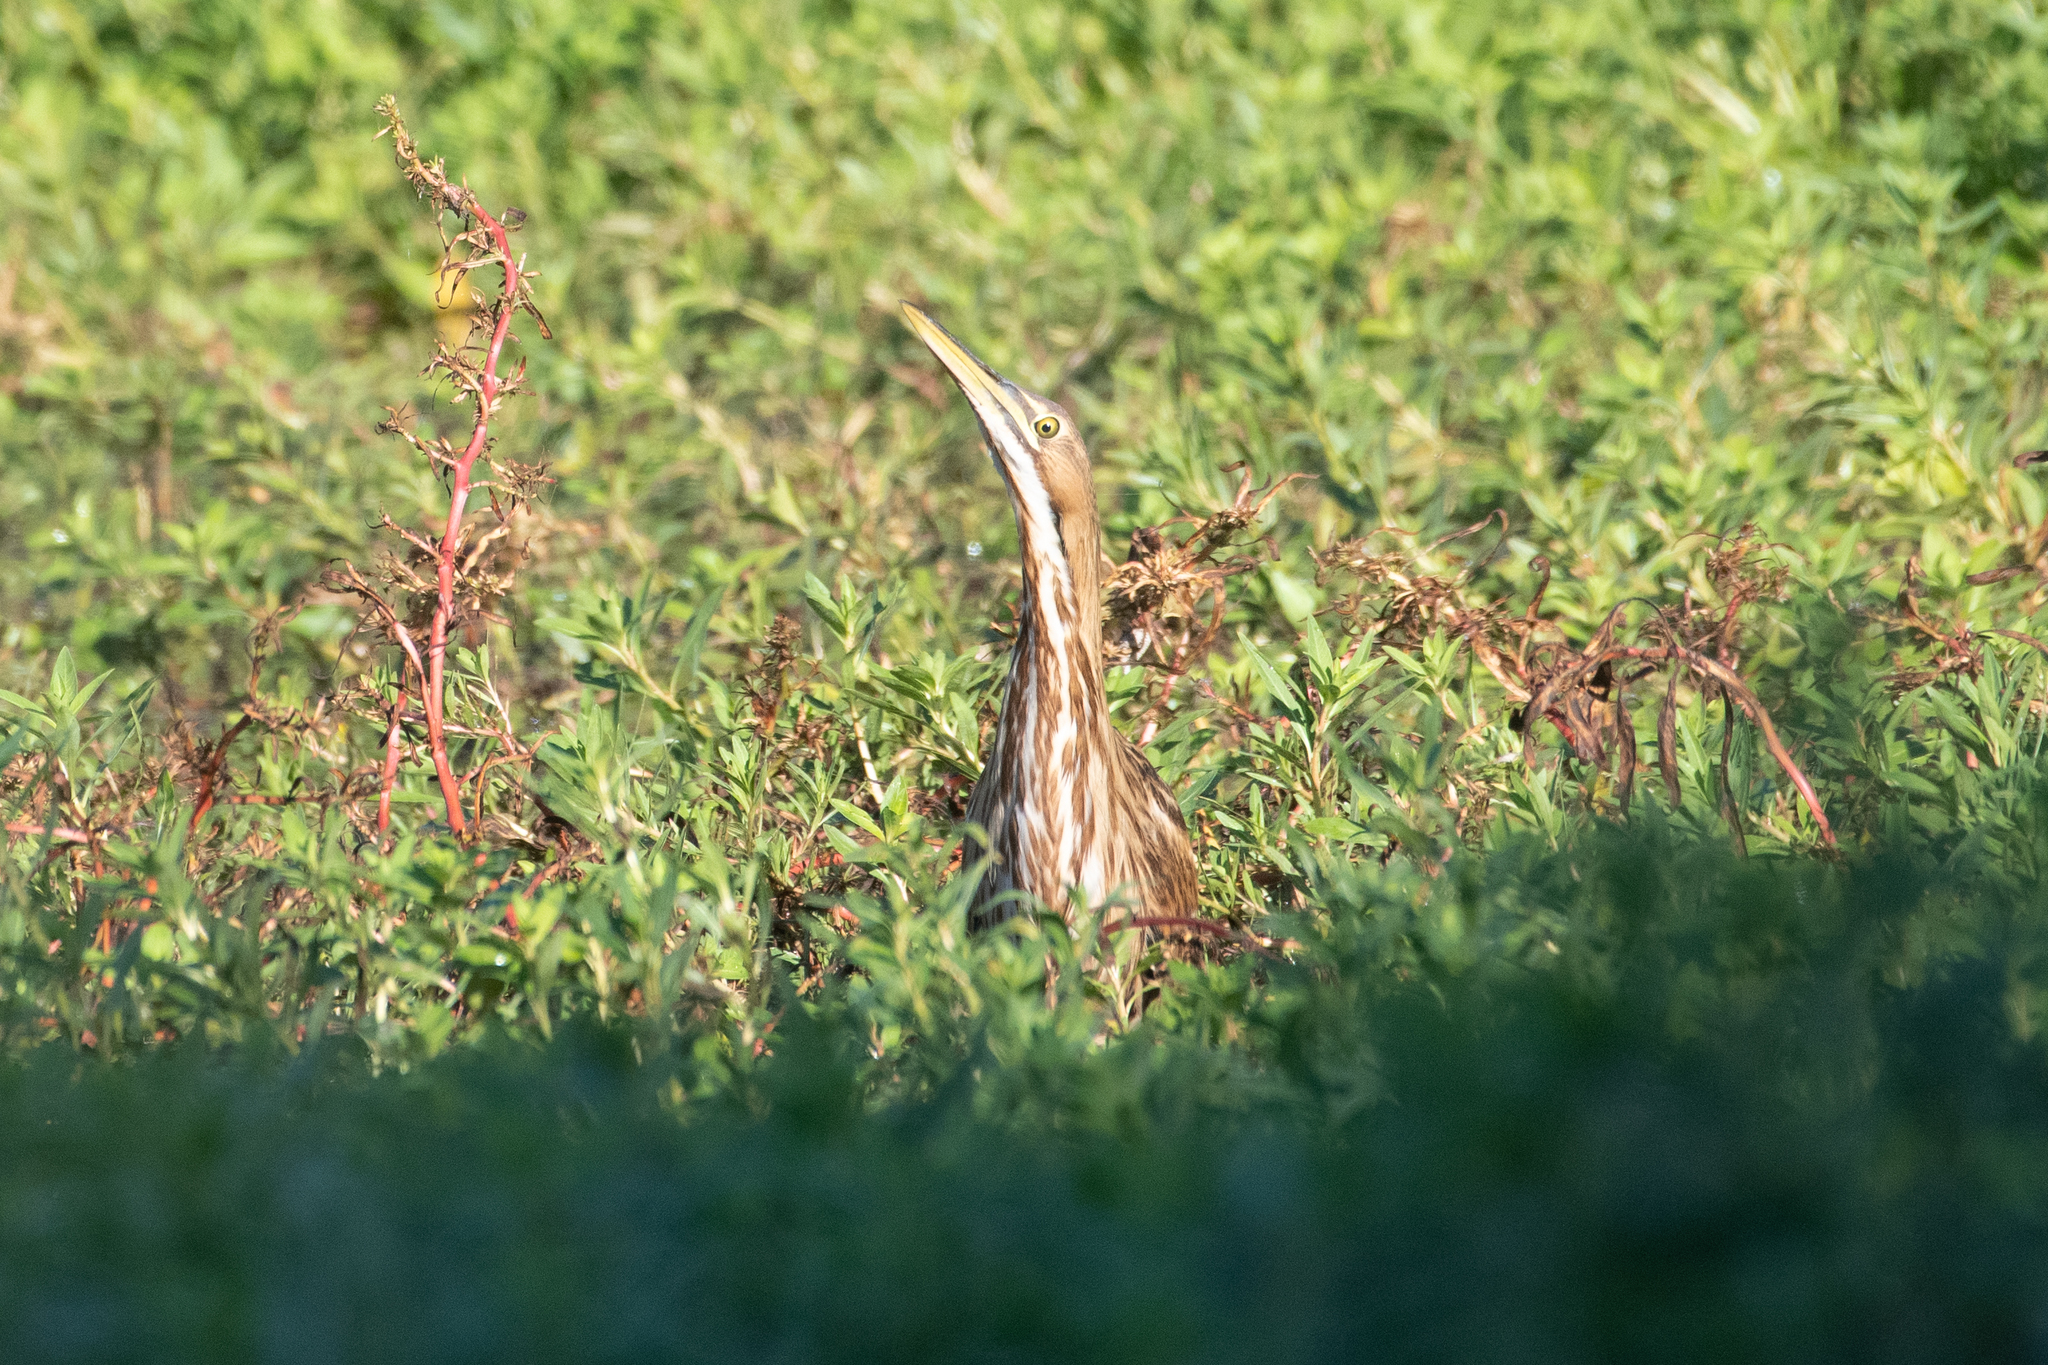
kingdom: Animalia
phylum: Chordata
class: Aves
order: Pelecaniformes
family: Ardeidae
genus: Botaurus
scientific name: Botaurus lentiginosus
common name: American bittern
